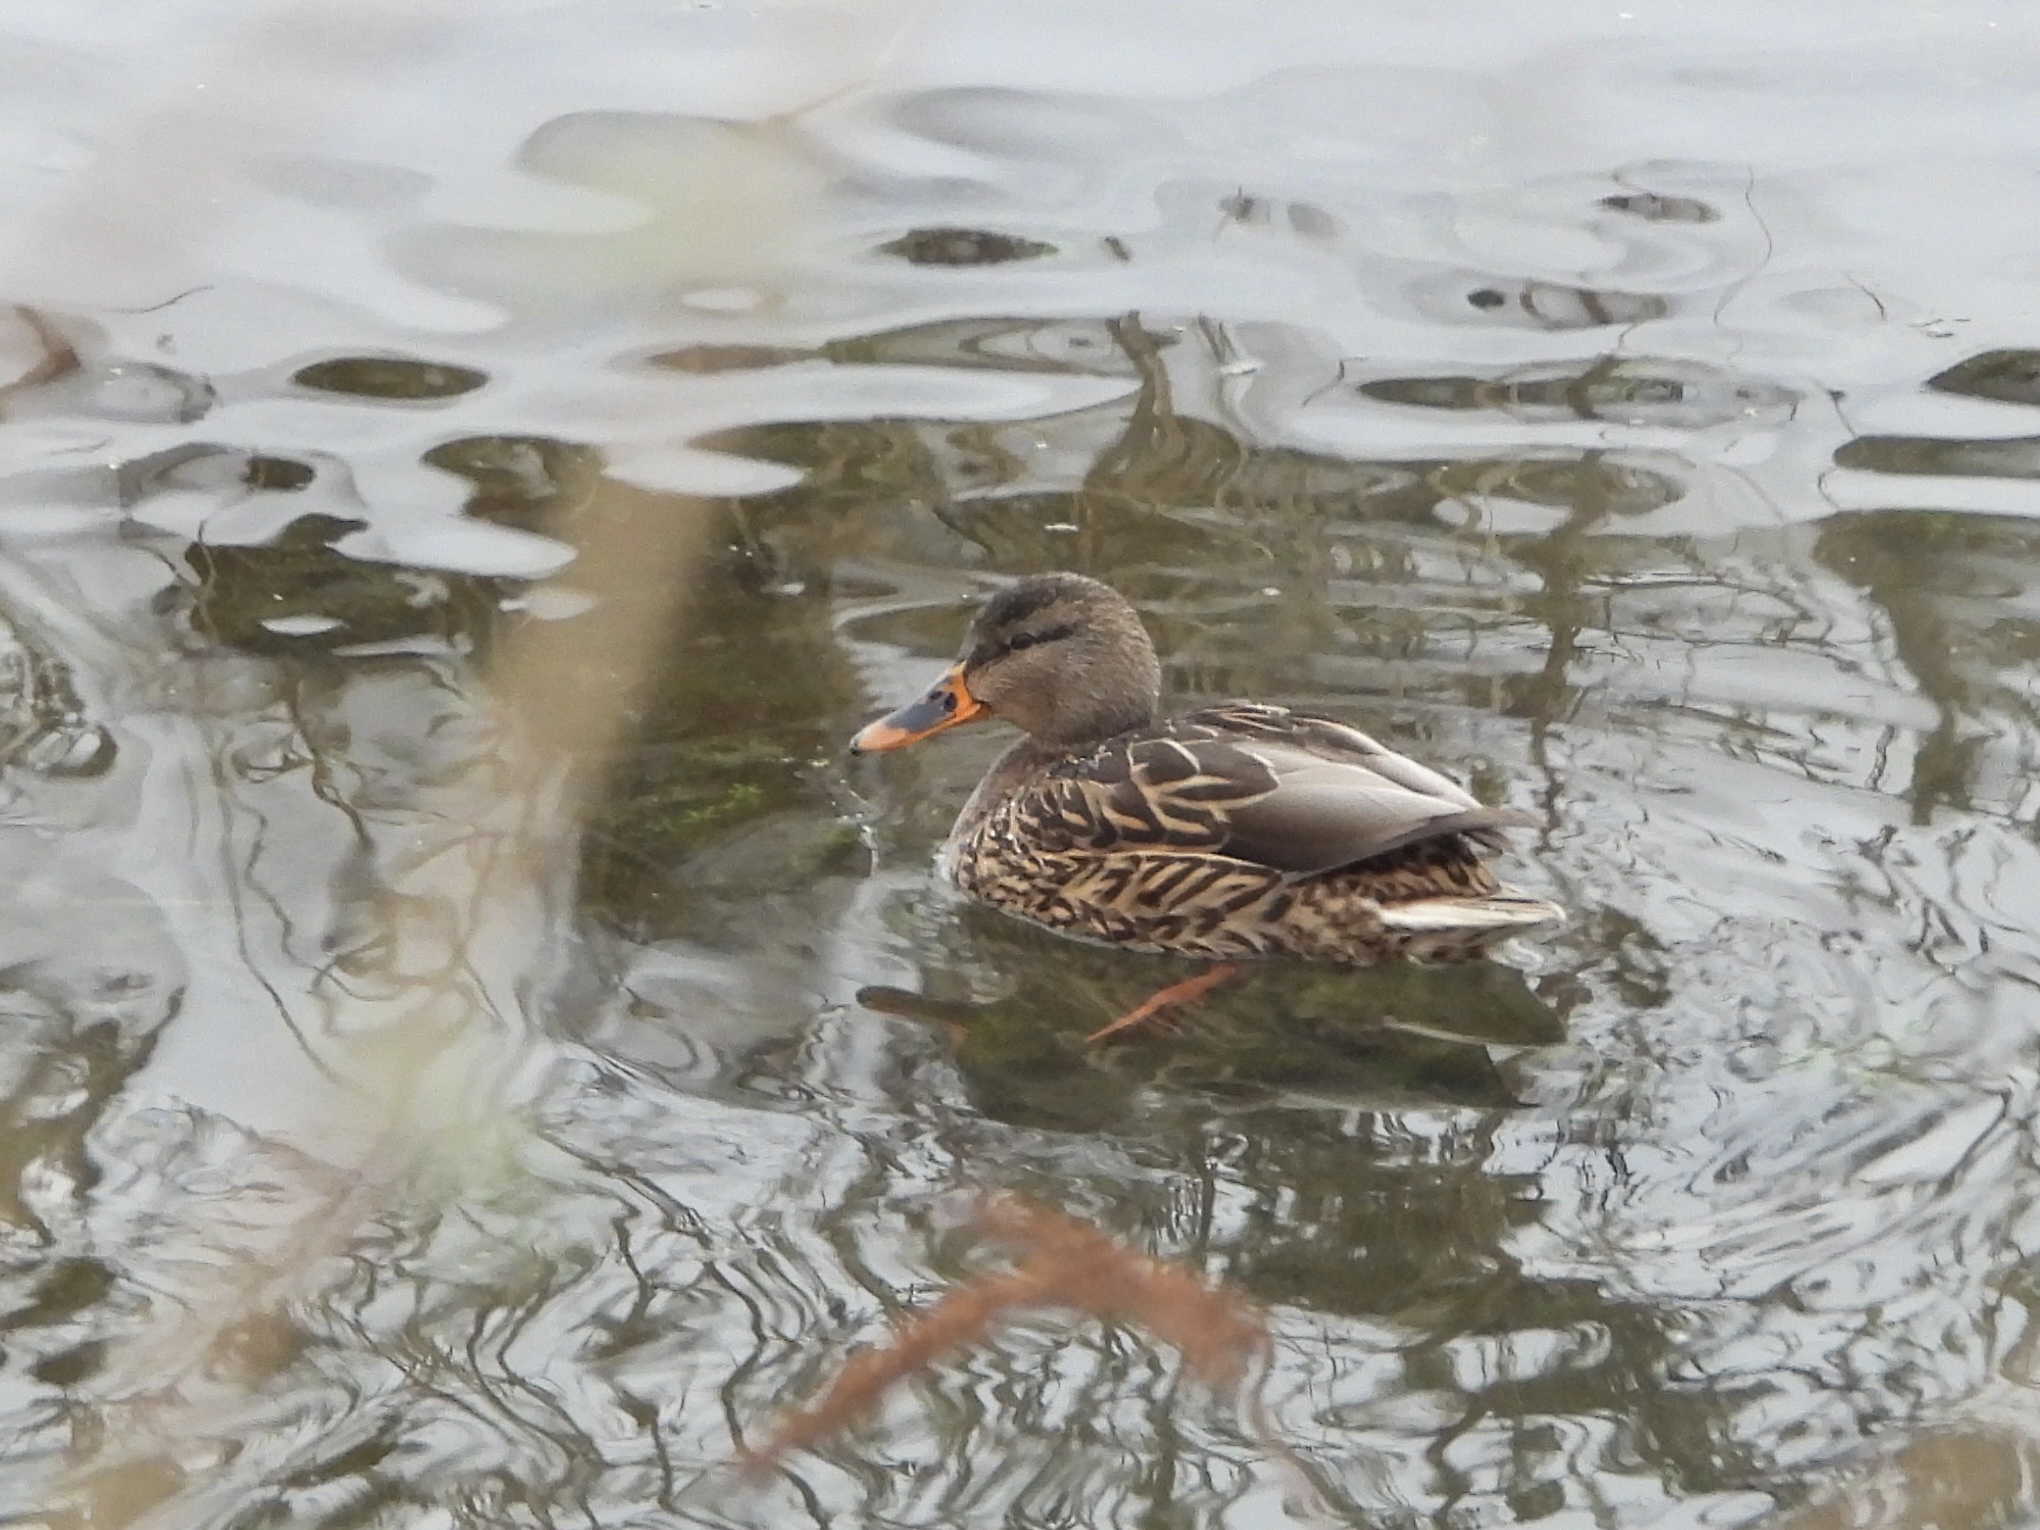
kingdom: Animalia
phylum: Chordata
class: Aves
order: Anseriformes
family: Anatidae
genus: Anas
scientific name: Anas platyrhynchos
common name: Mallard
